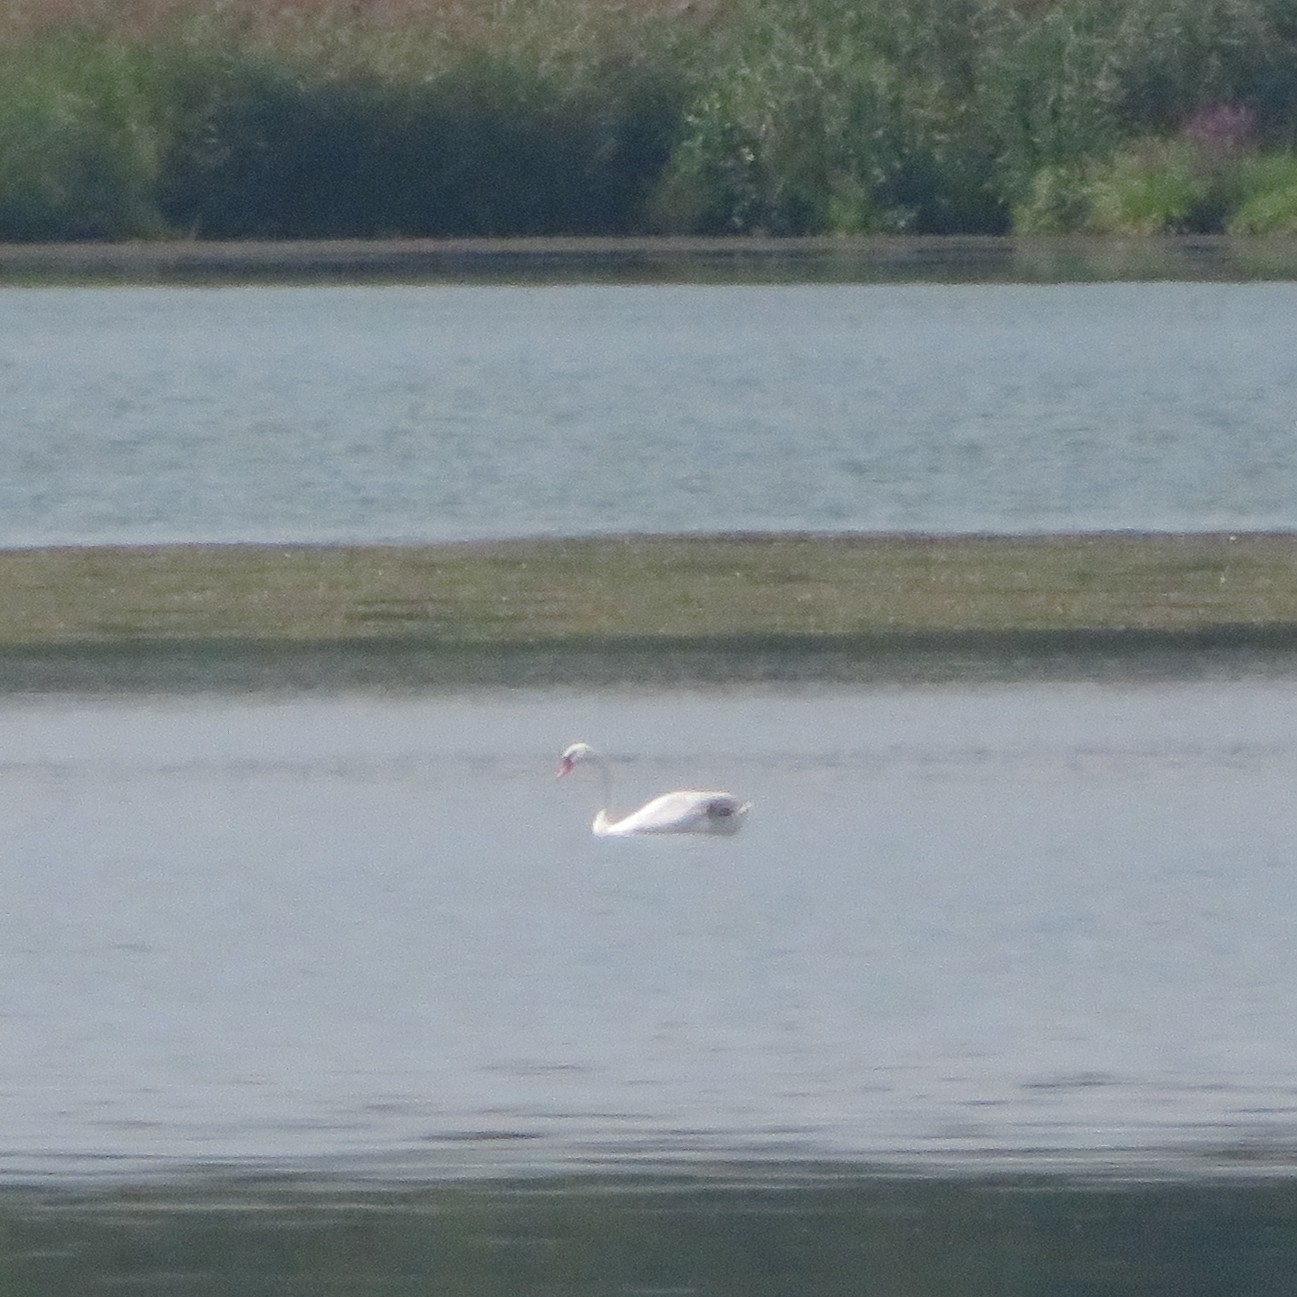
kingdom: Animalia
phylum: Chordata
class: Aves
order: Anseriformes
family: Anatidae
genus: Cygnus
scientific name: Cygnus olor
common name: Mute swan
